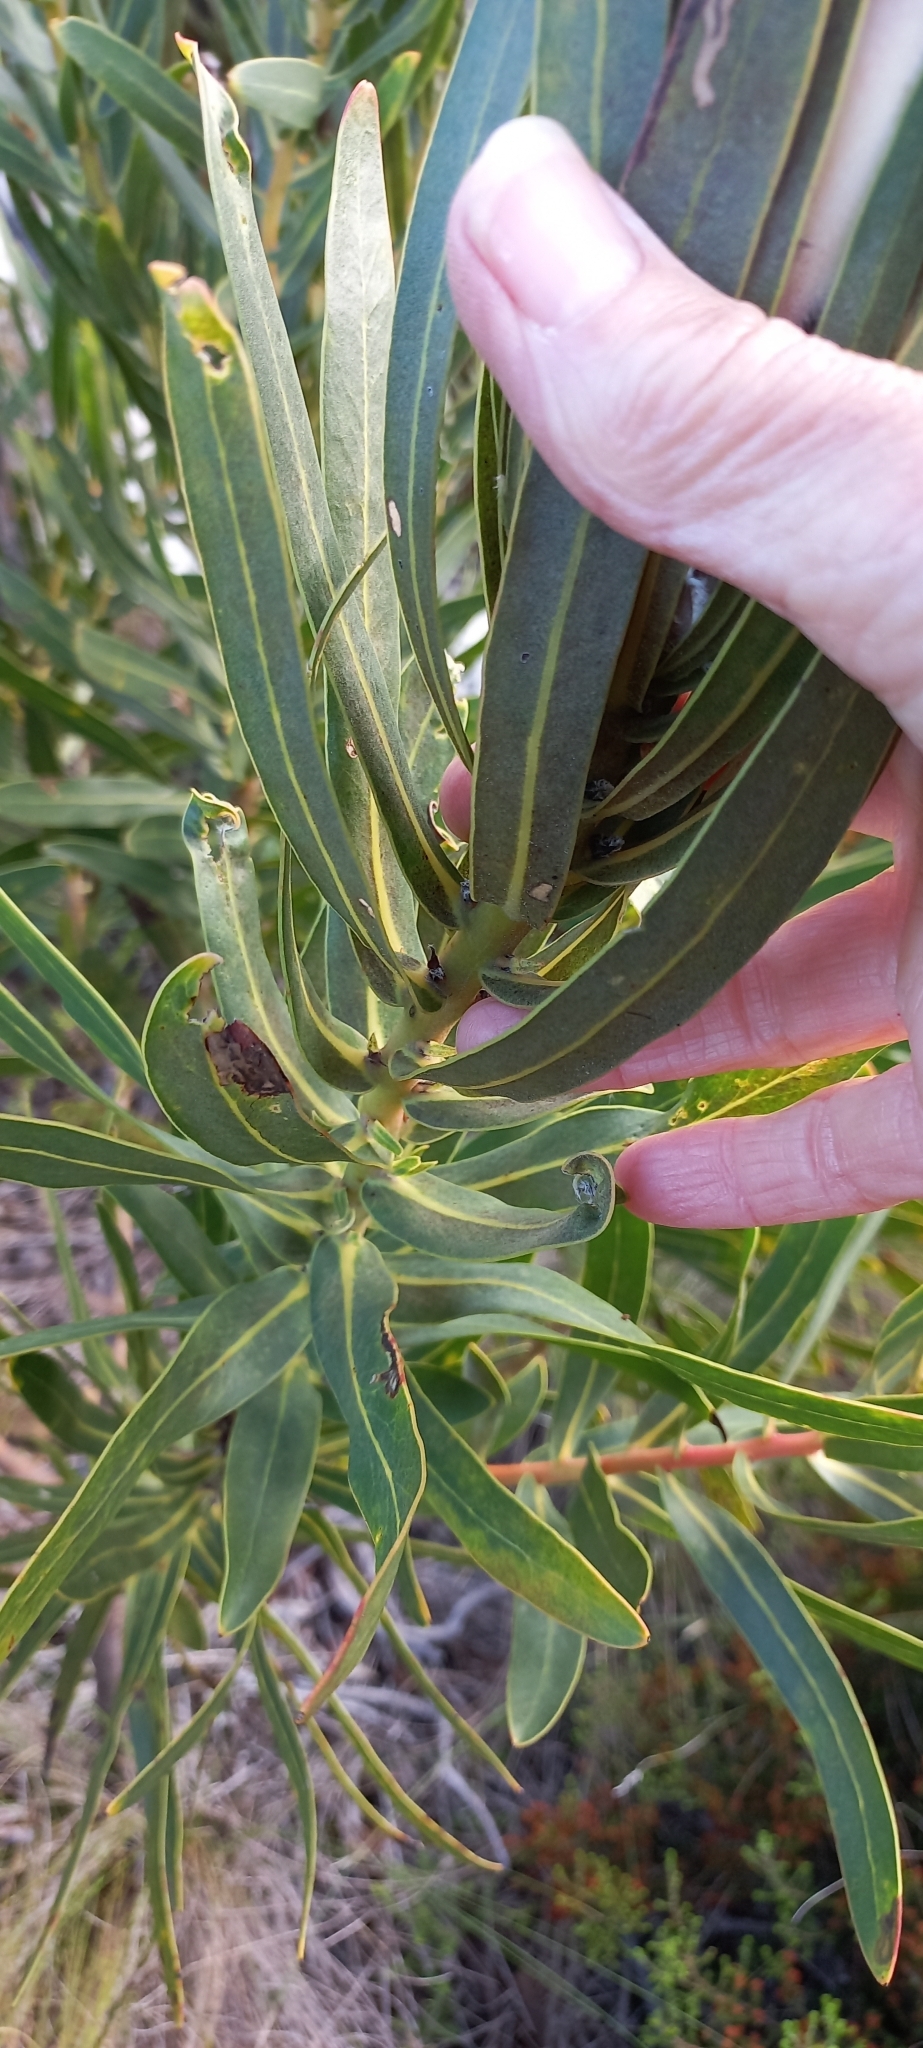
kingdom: Plantae
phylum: Tracheophyta
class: Magnoliopsida
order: Proteales
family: Proteaceae
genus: Protea
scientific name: Protea lepidocarpodendron
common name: Black-bearded protea
